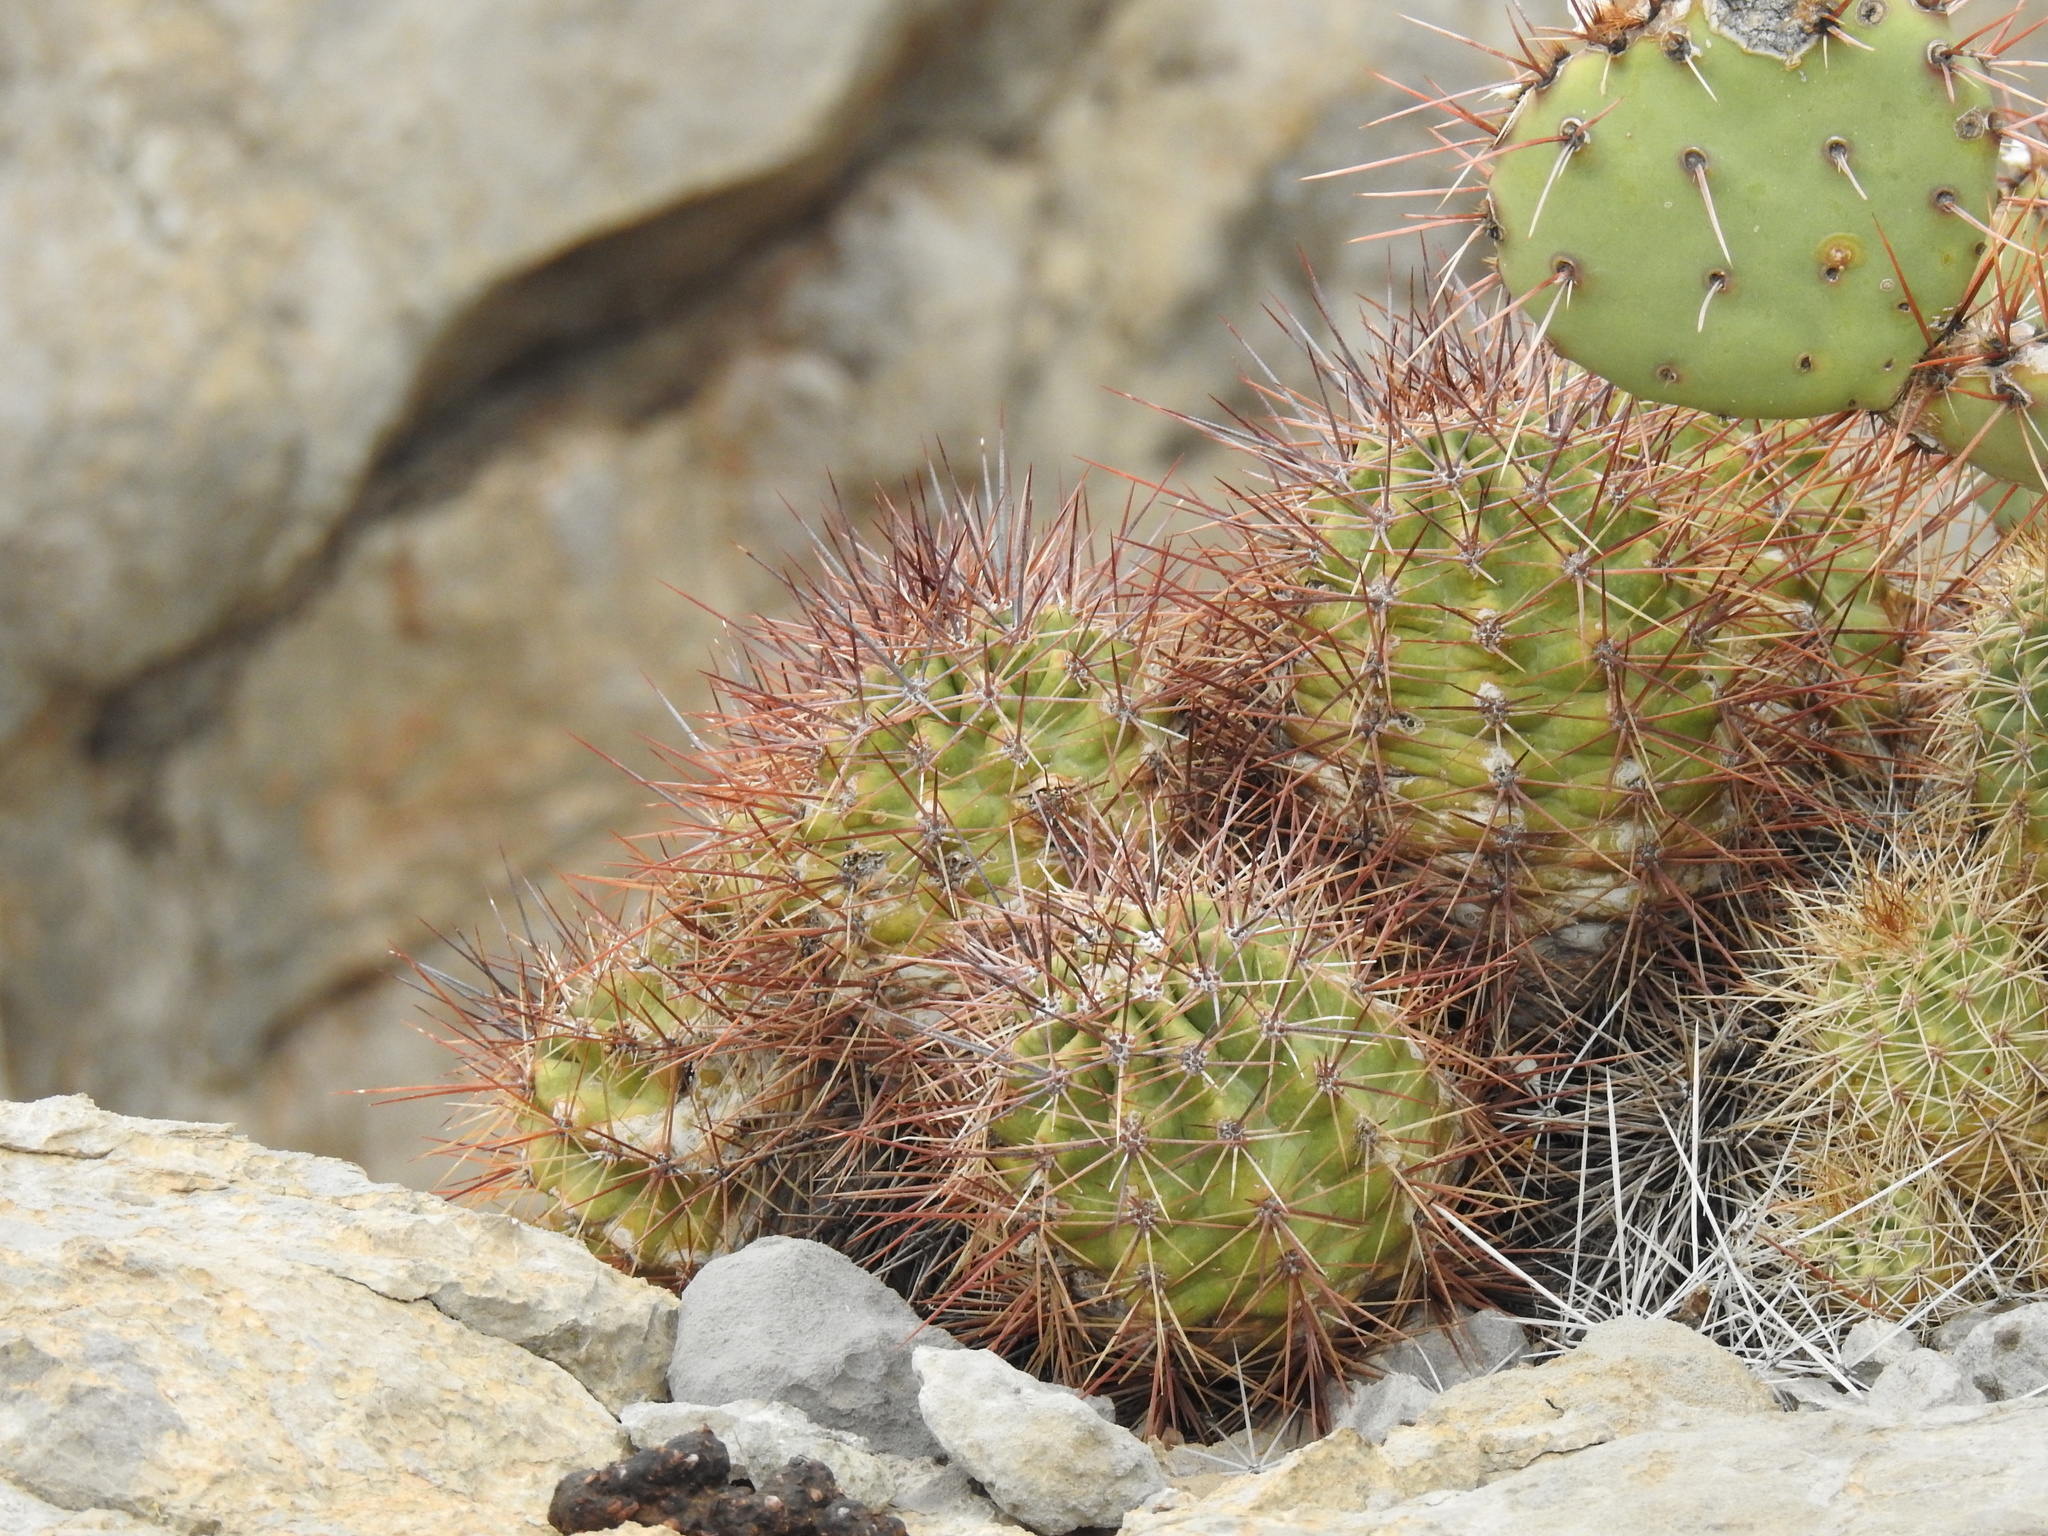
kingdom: Plantae
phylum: Tracheophyta
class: Magnoliopsida
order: Caryophyllales
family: Cactaceae
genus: Echinocereus
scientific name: Echinocereus coccineus
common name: Scarlet hedgehog cactus
